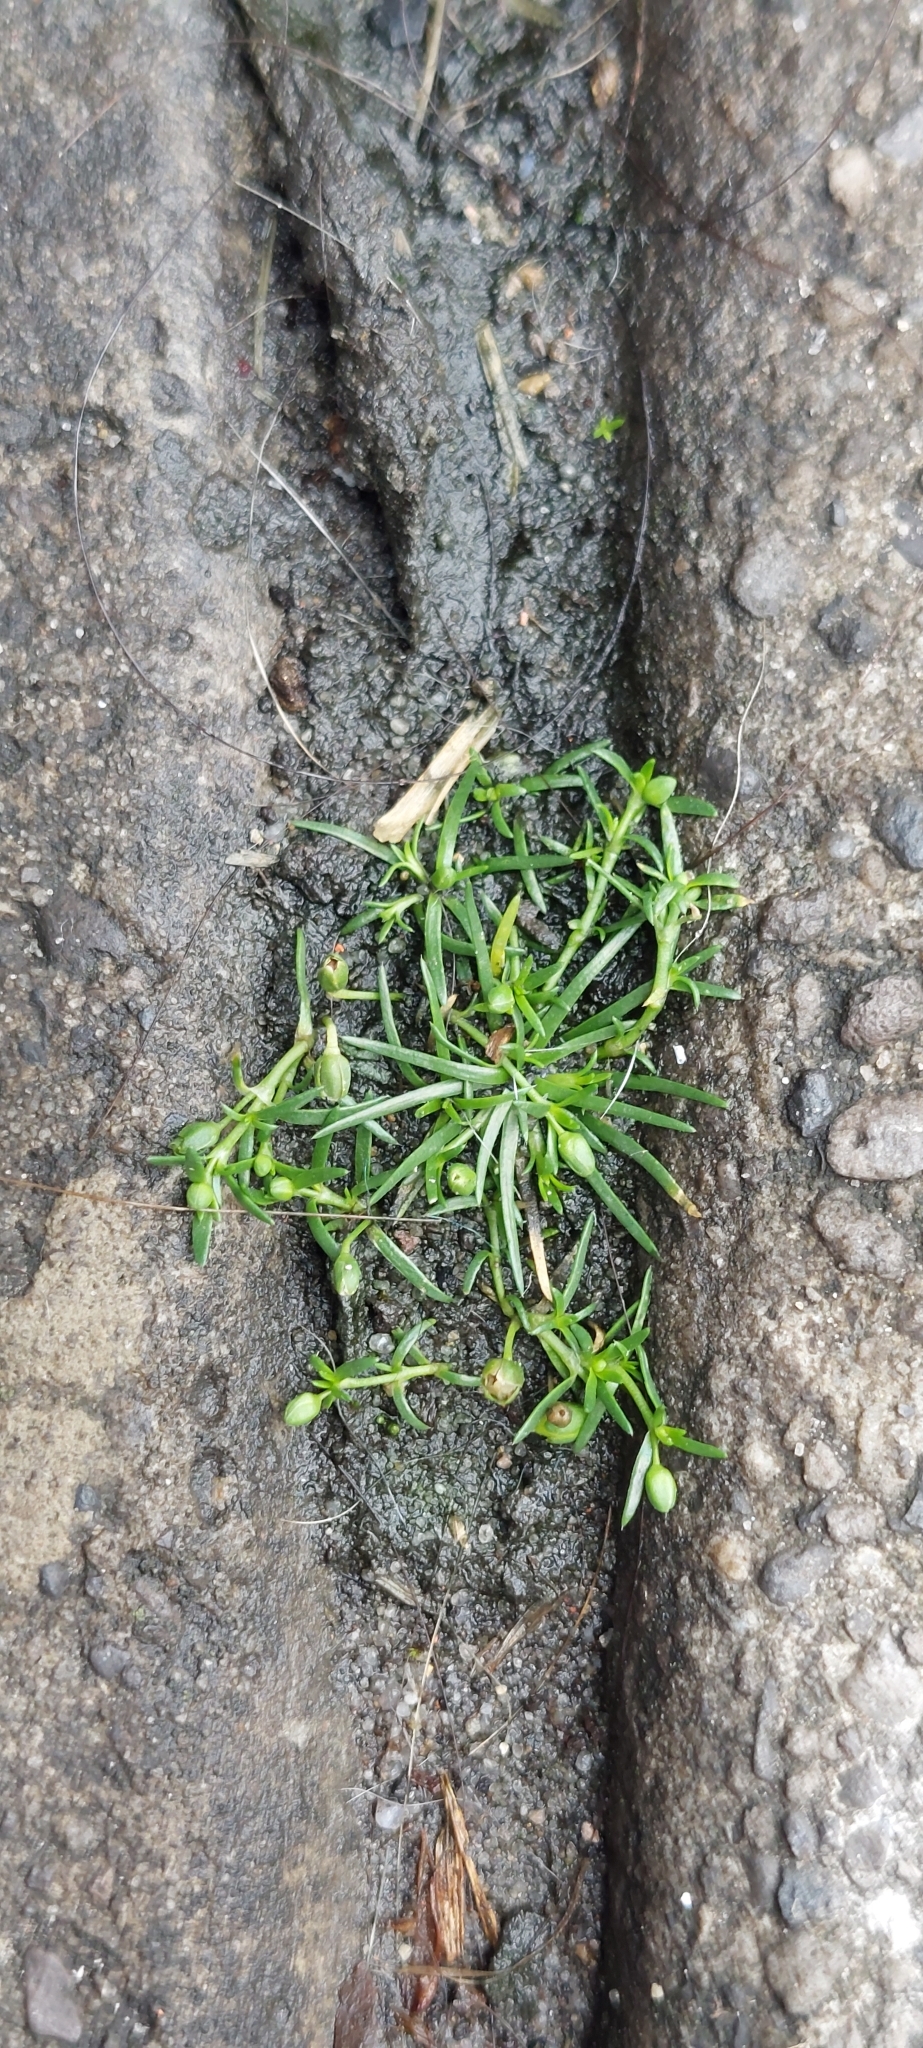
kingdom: Plantae
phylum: Tracheophyta
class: Magnoliopsida
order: Caryophyllales
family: Caryophyllaceae
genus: Sagina
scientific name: Sagina procumbens
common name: Procumbent pearlwort
